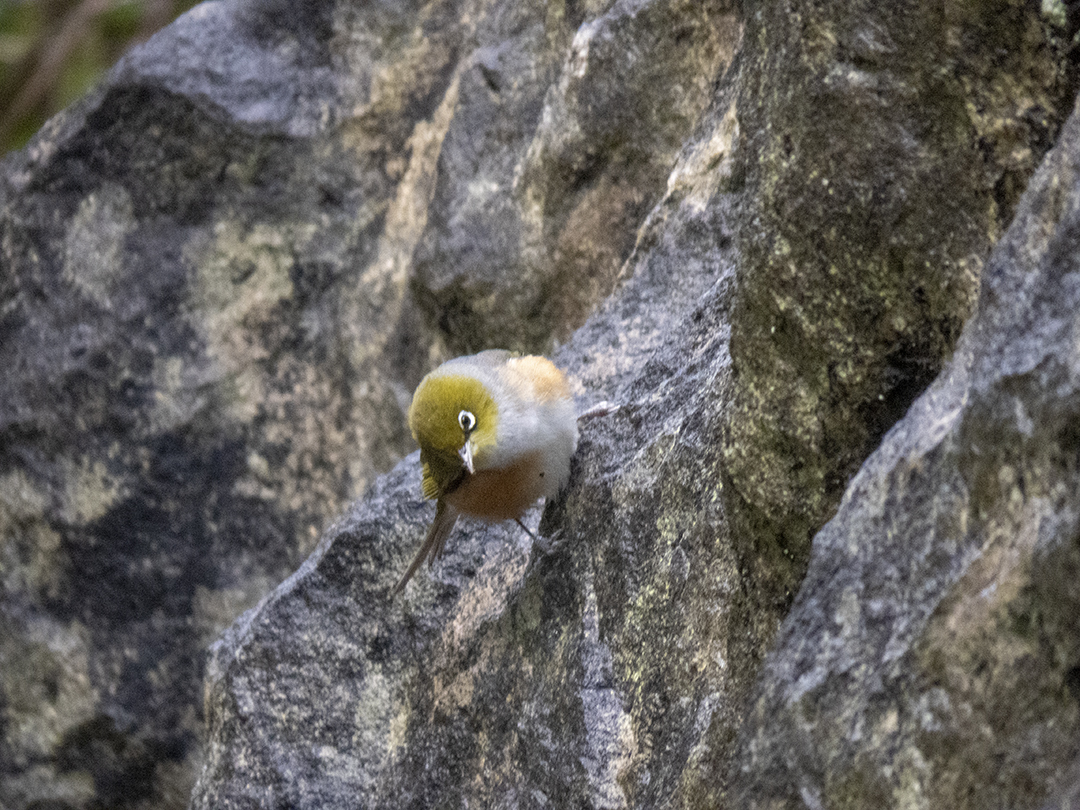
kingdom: Animalia
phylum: Chordata
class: Aves
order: Passeriformes
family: Zosteropidae
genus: Zosterops
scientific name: Zosterops lateralis
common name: Silvereye
